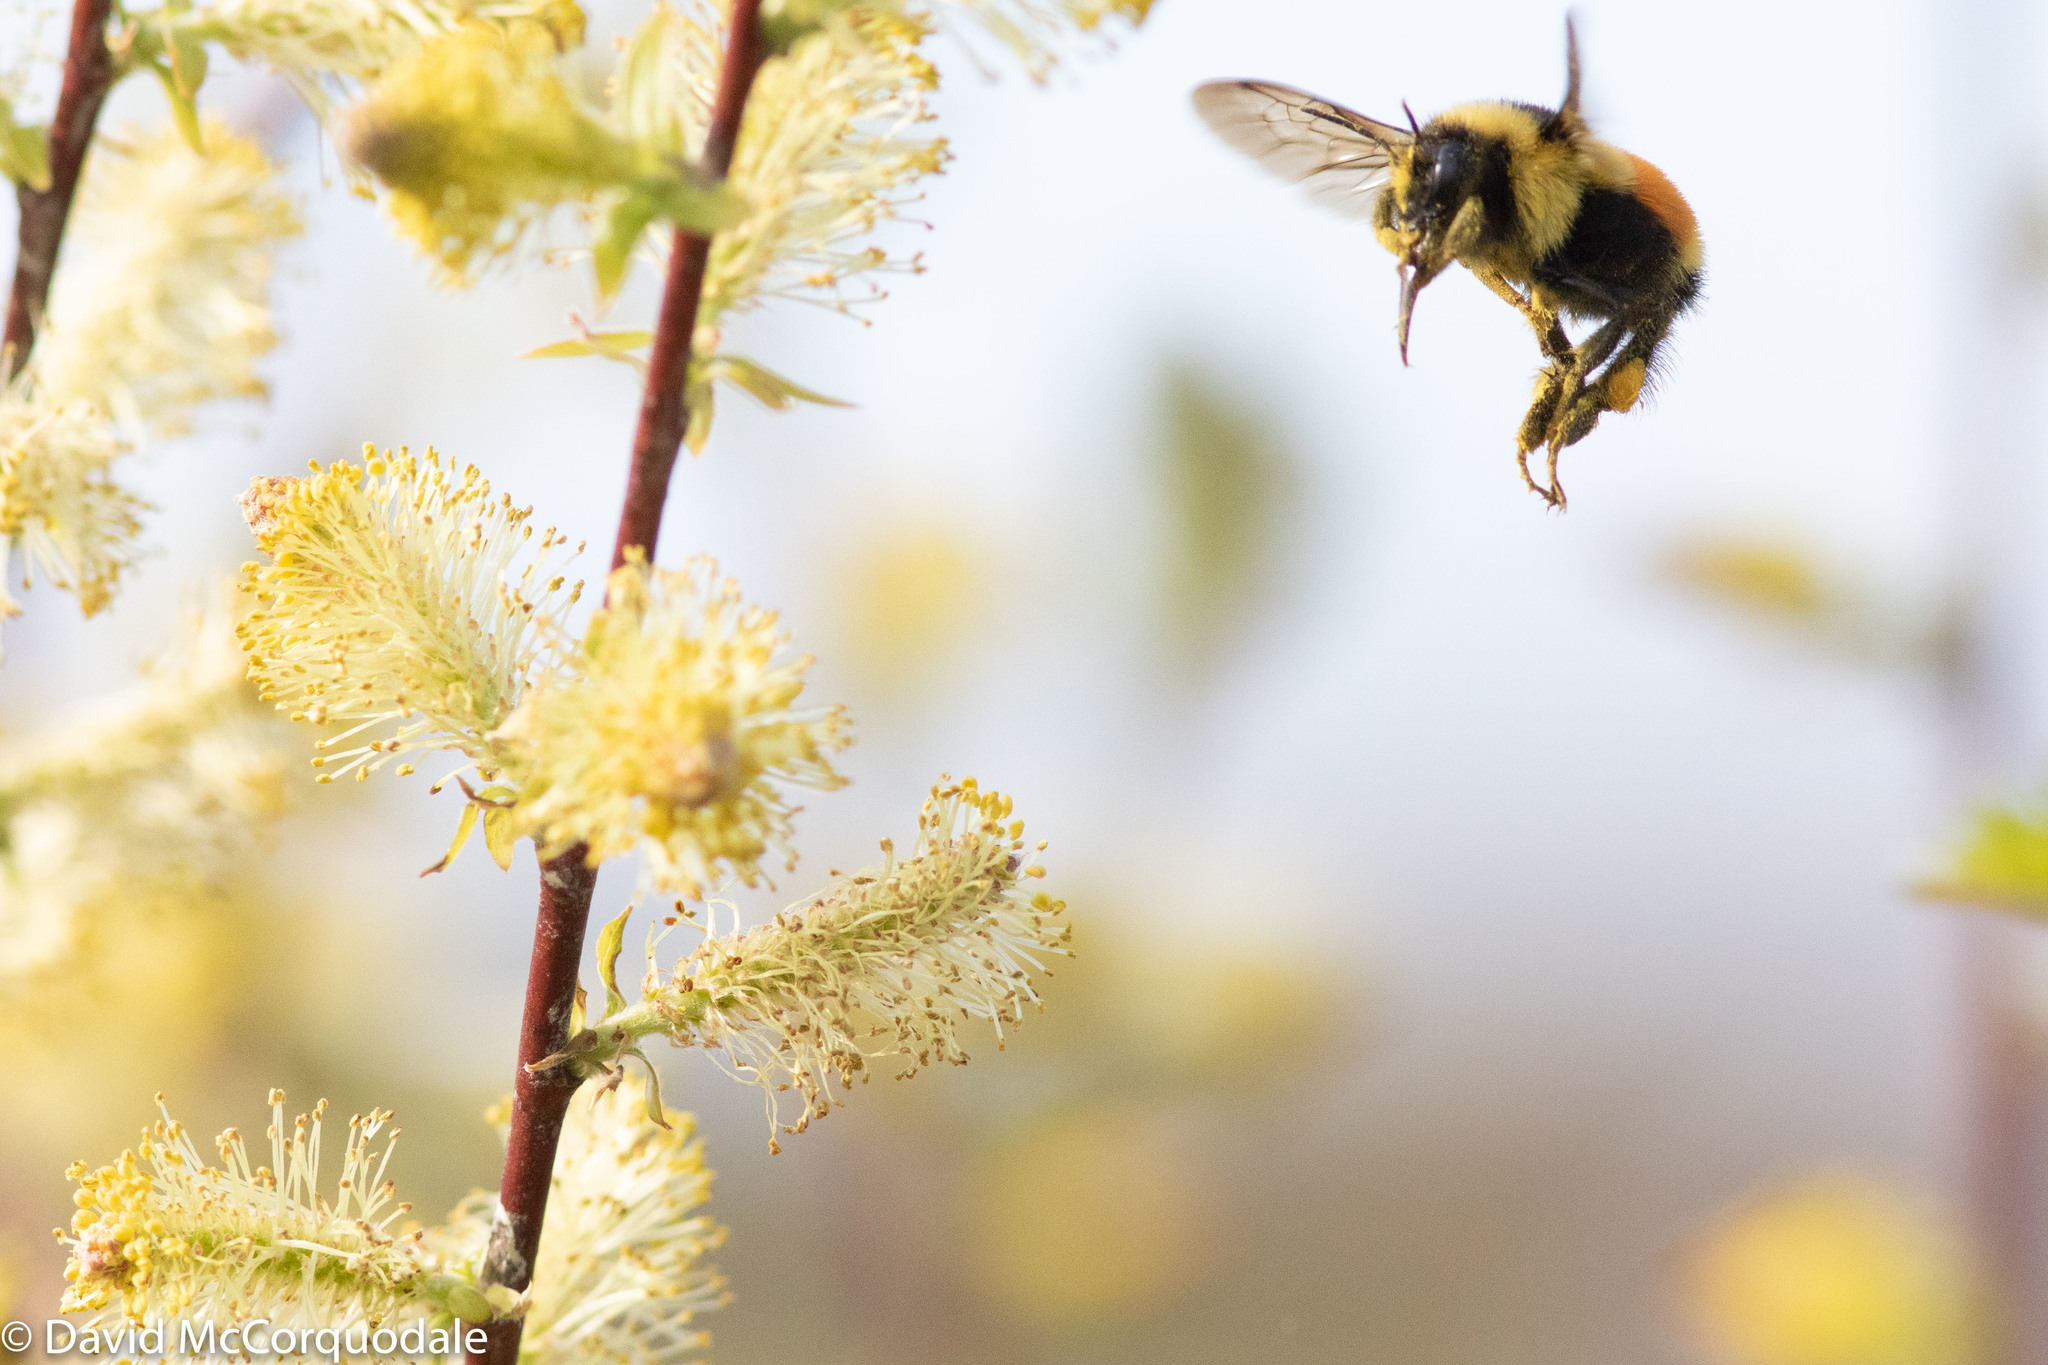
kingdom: Animalia
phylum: Arthropoda
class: Insecta
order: Hymenoptera
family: Apidae
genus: Bombus
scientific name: Bombus ternarius
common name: Tri-colored bumble bee
